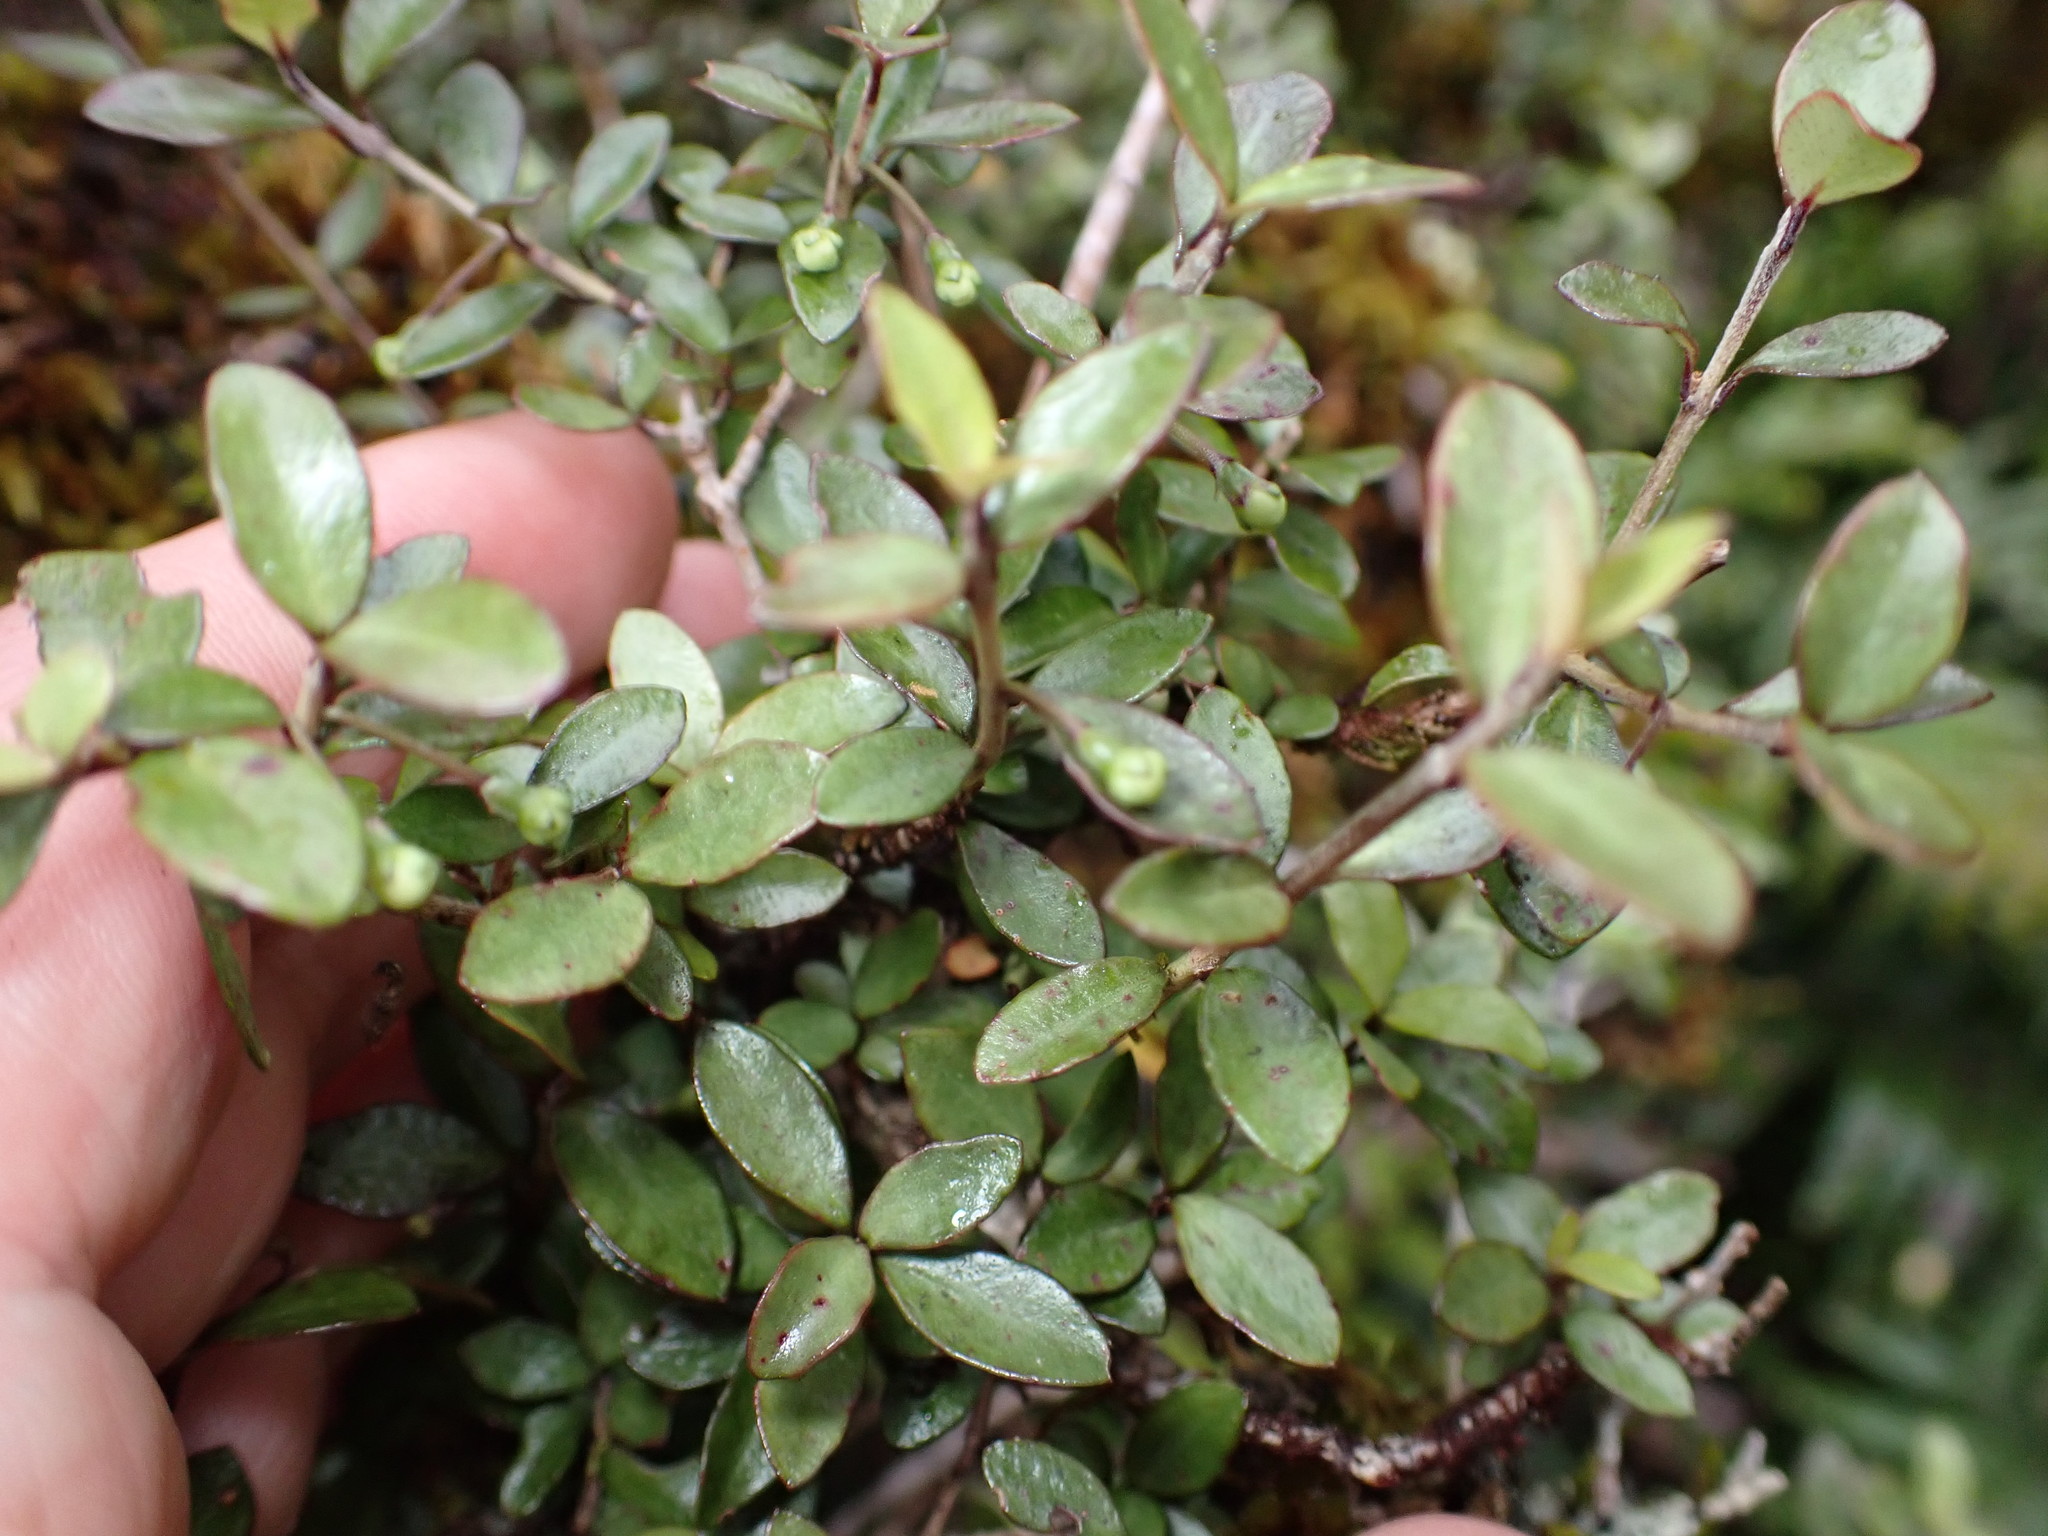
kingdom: Plantae
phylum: Tracheophyta
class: Magnoliopsida
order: Myrtales
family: Myrtaceae
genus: Neomyrtus
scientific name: Neomyrtus pedunculata
